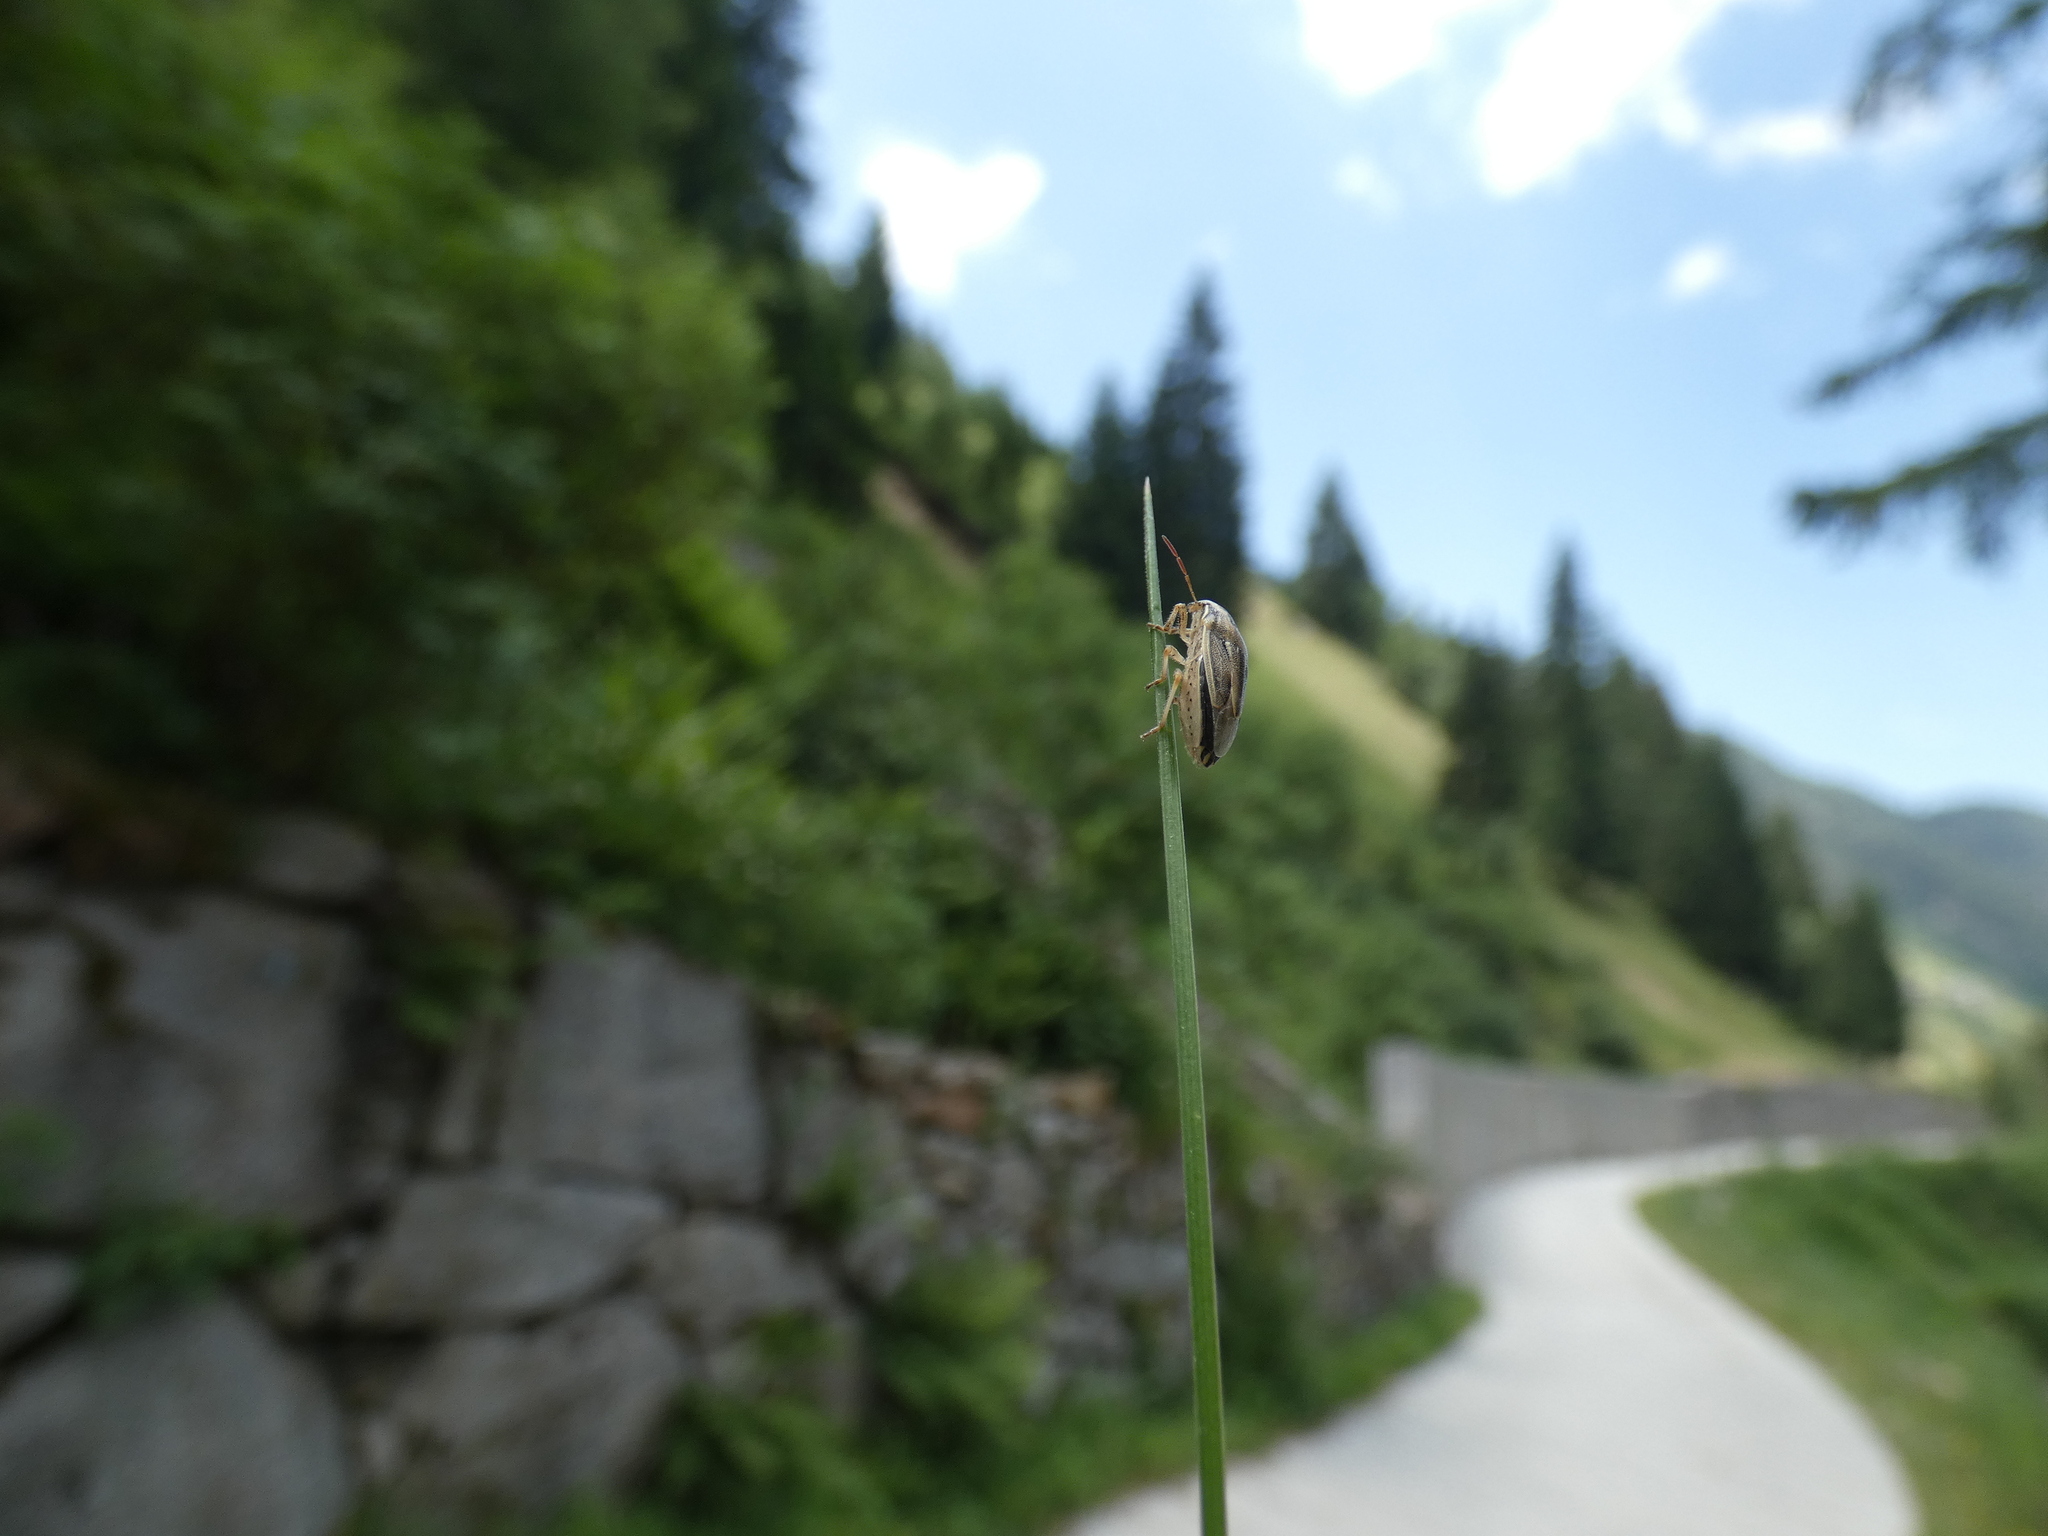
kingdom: Animalia
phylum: Arthropoda
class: Insecta
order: Hemiptera
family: Pentatomidae
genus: Aelia
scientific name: Aelia acuminata
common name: Bishop's mitre
